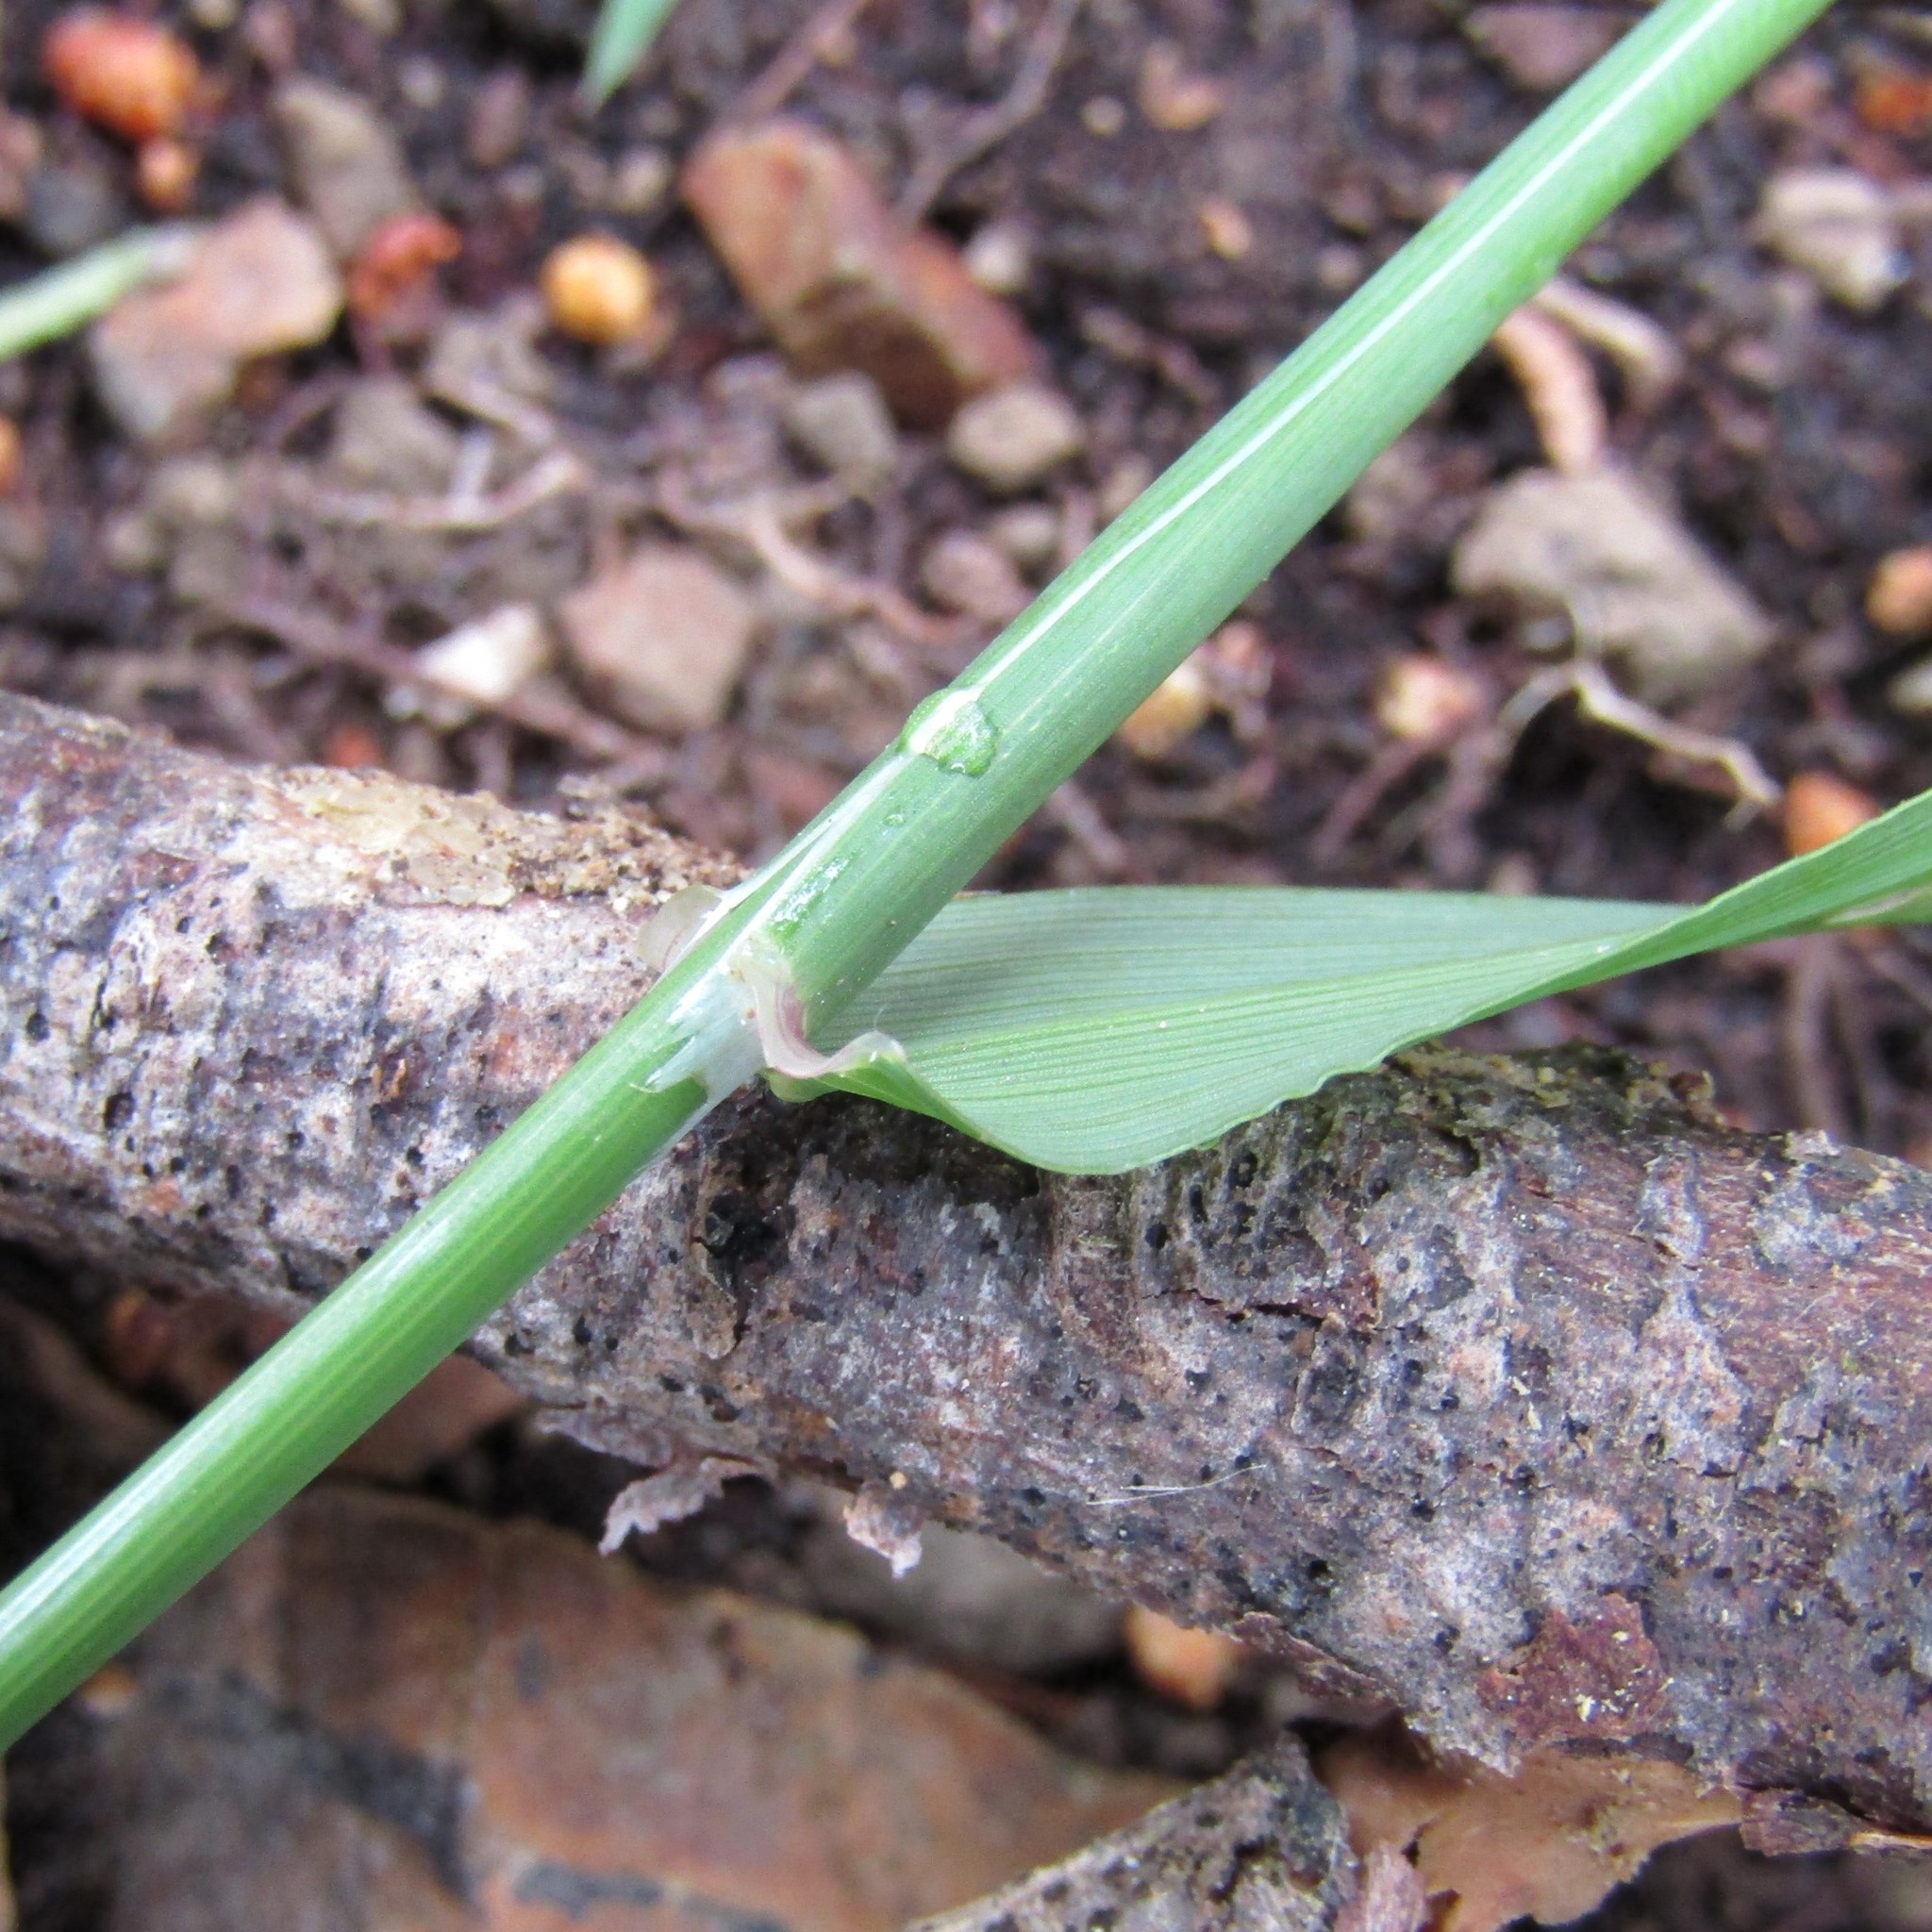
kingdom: Plantae
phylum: Tracheophyta
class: Liliopsida
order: Poales
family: Poaceae
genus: Ehrharta
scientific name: Ehrharta erecta
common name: Panic veldtgrass
